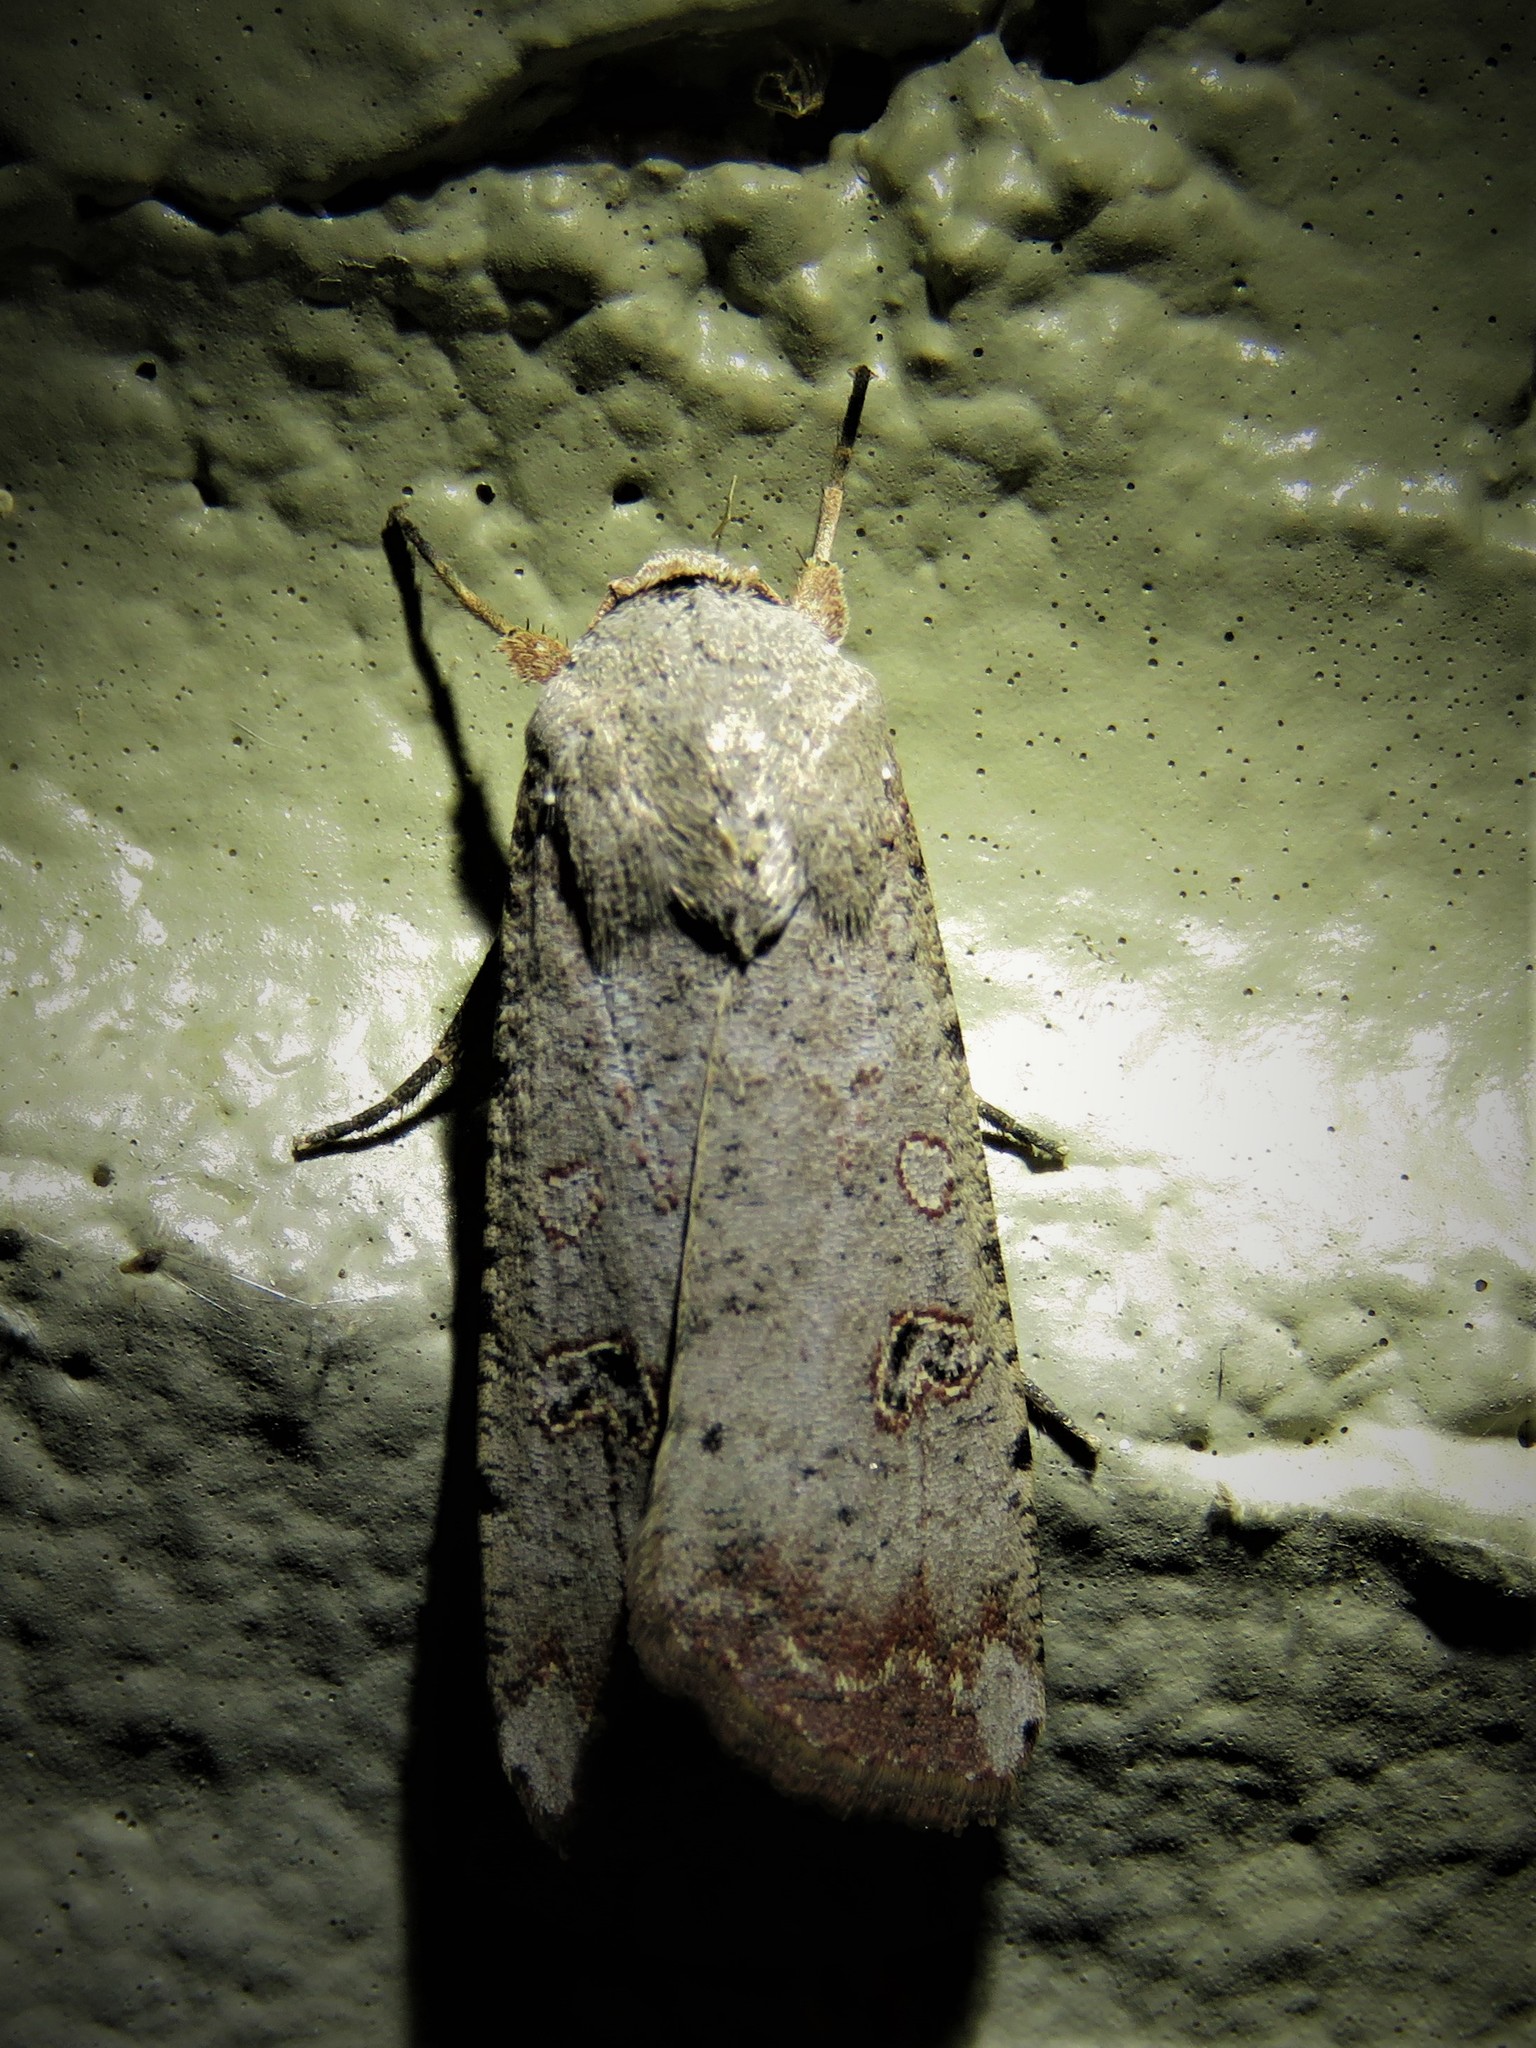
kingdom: Animalia
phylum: Arthropoda
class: Insecta
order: Lepidoptera
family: Noctuidae
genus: Anicla
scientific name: Anicla infecta
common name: Green cutworm
